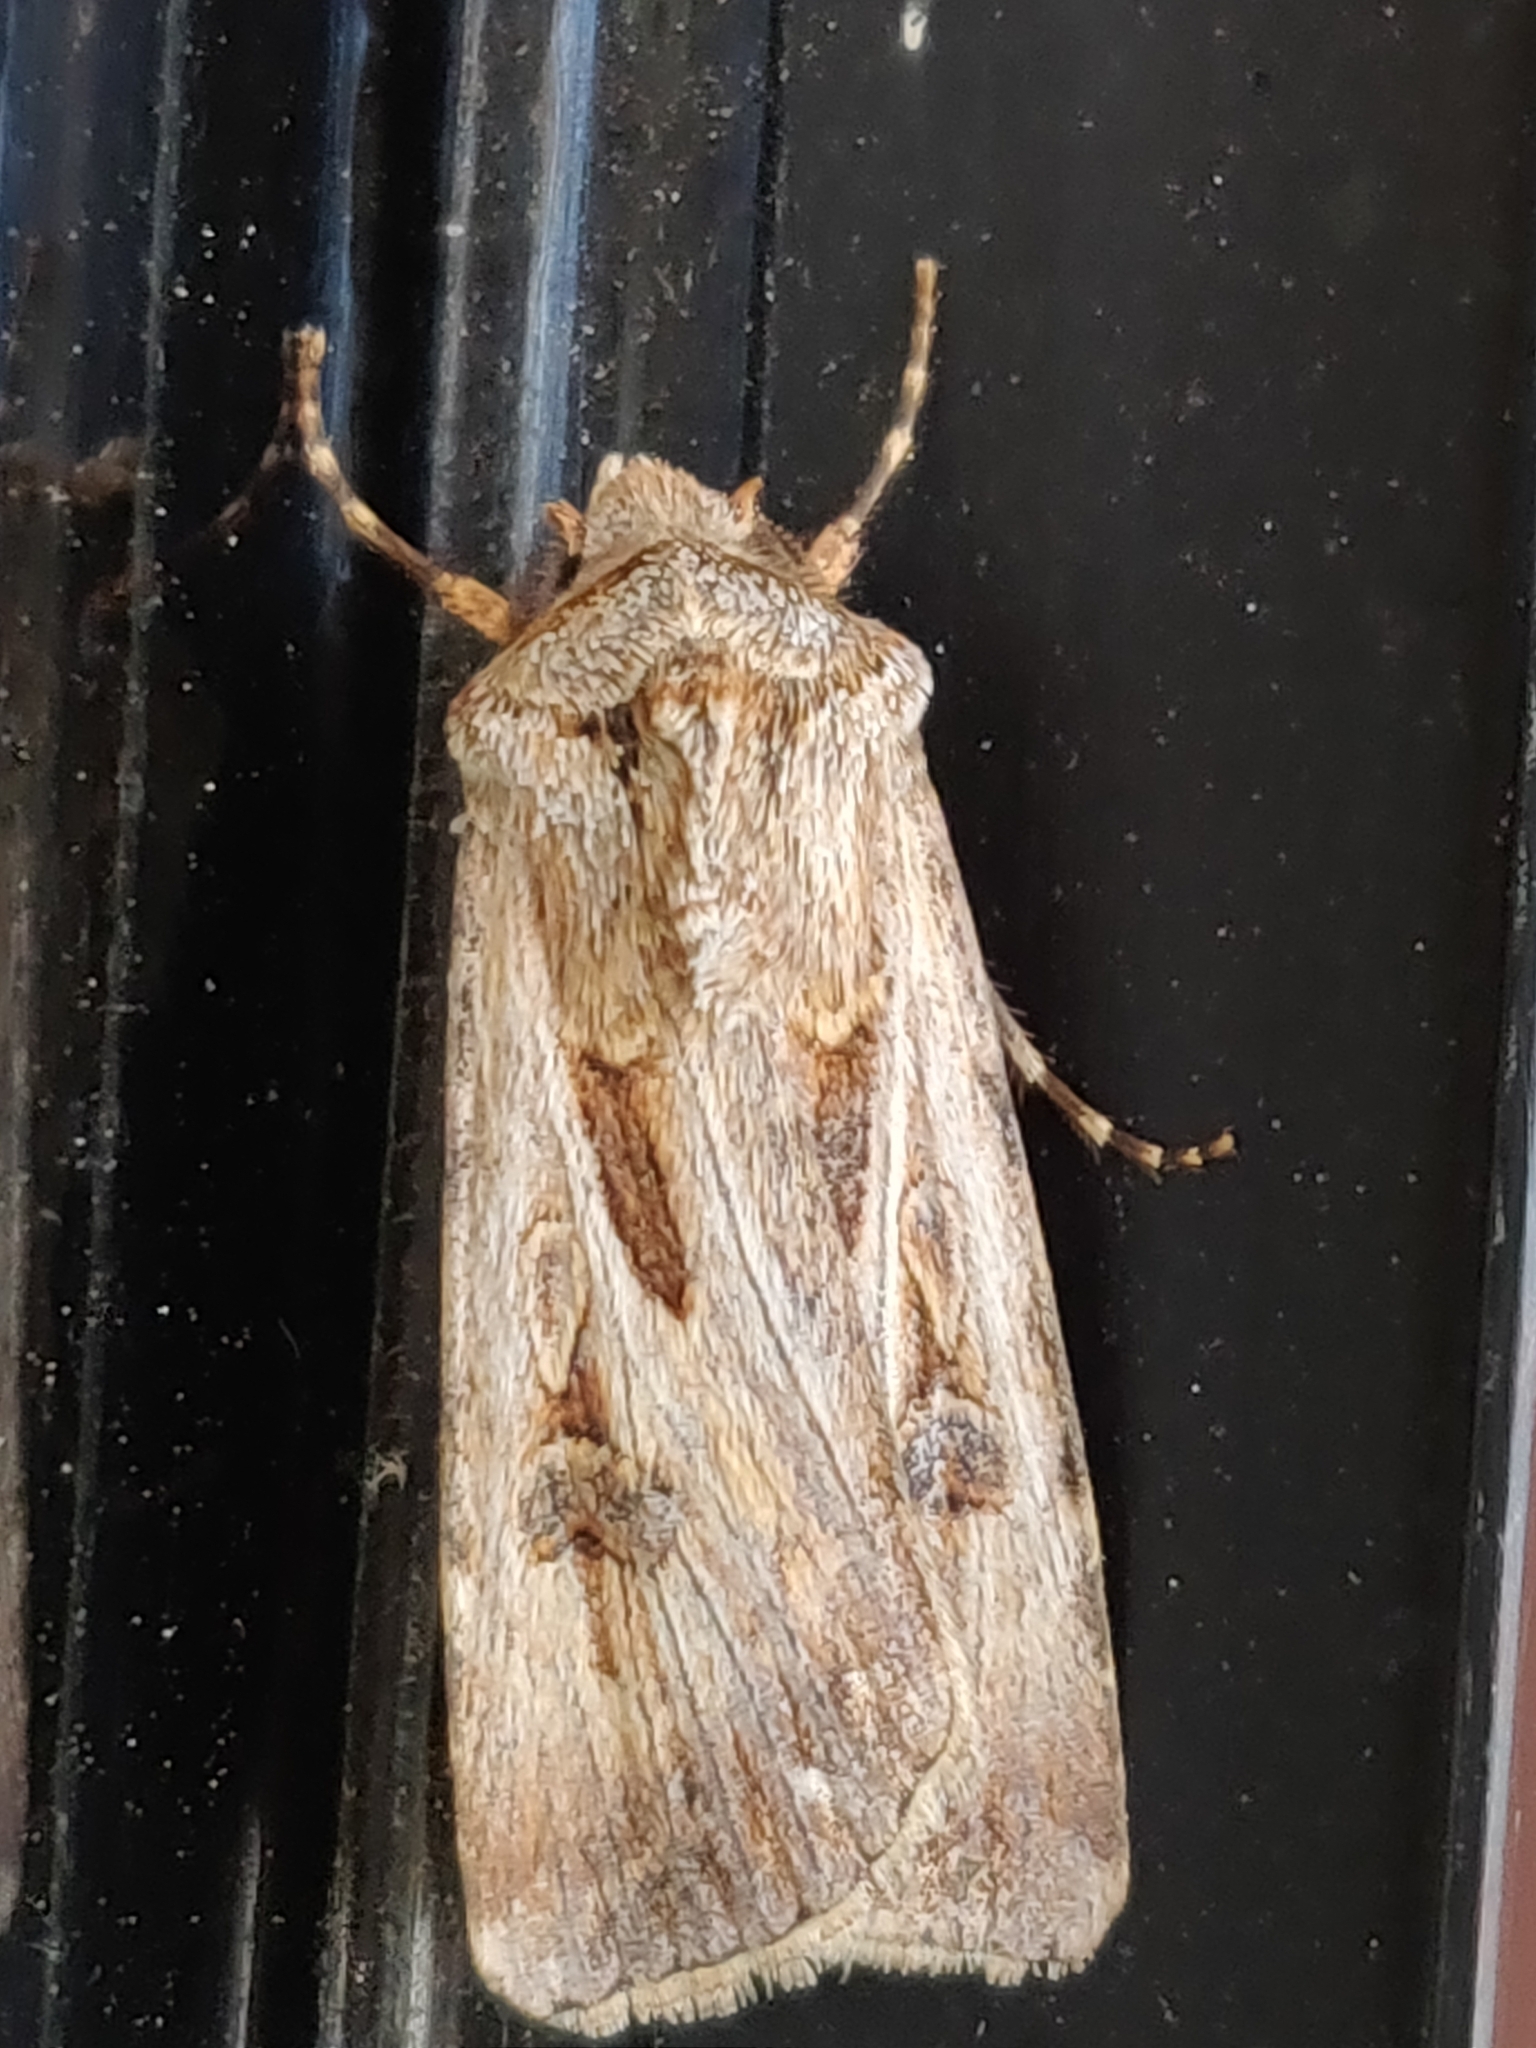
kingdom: Animalia
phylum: Arthropoda
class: Insecta
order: Lepidoptera
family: Noctuidae
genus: Agrotis
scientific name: Agrotis munda
